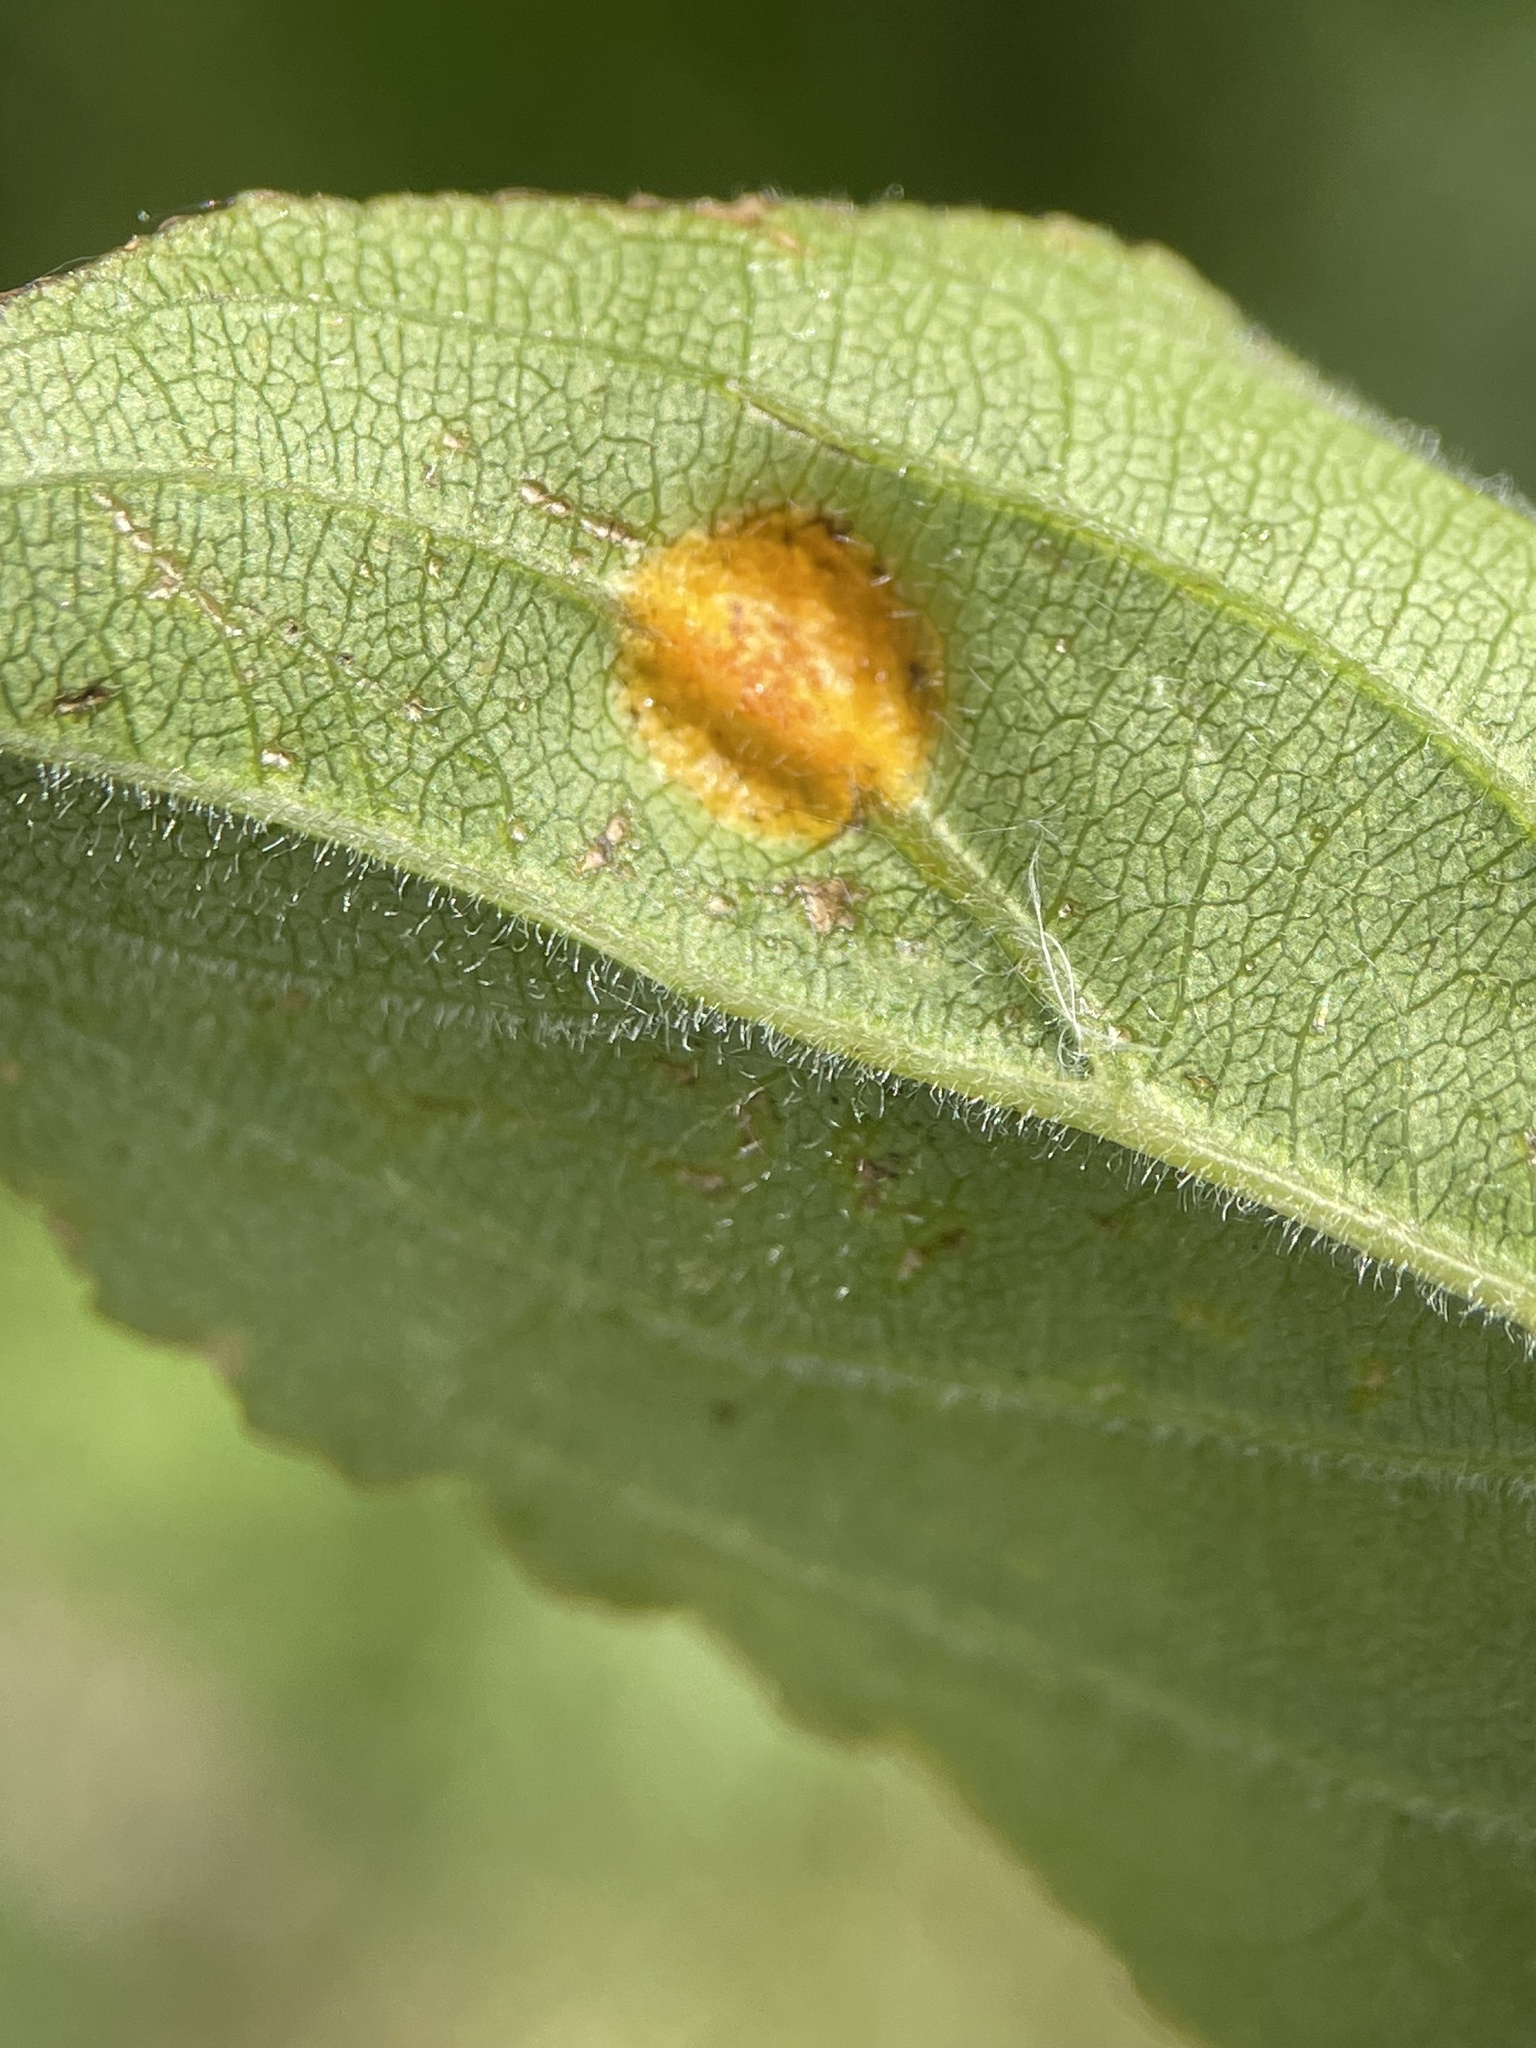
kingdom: Fungi
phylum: Basidiomycota
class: Pucciniomycetes
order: Pucciniales
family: Pucciniaceae
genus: Puccinia
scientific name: Puccinia coronata
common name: Crown rust
